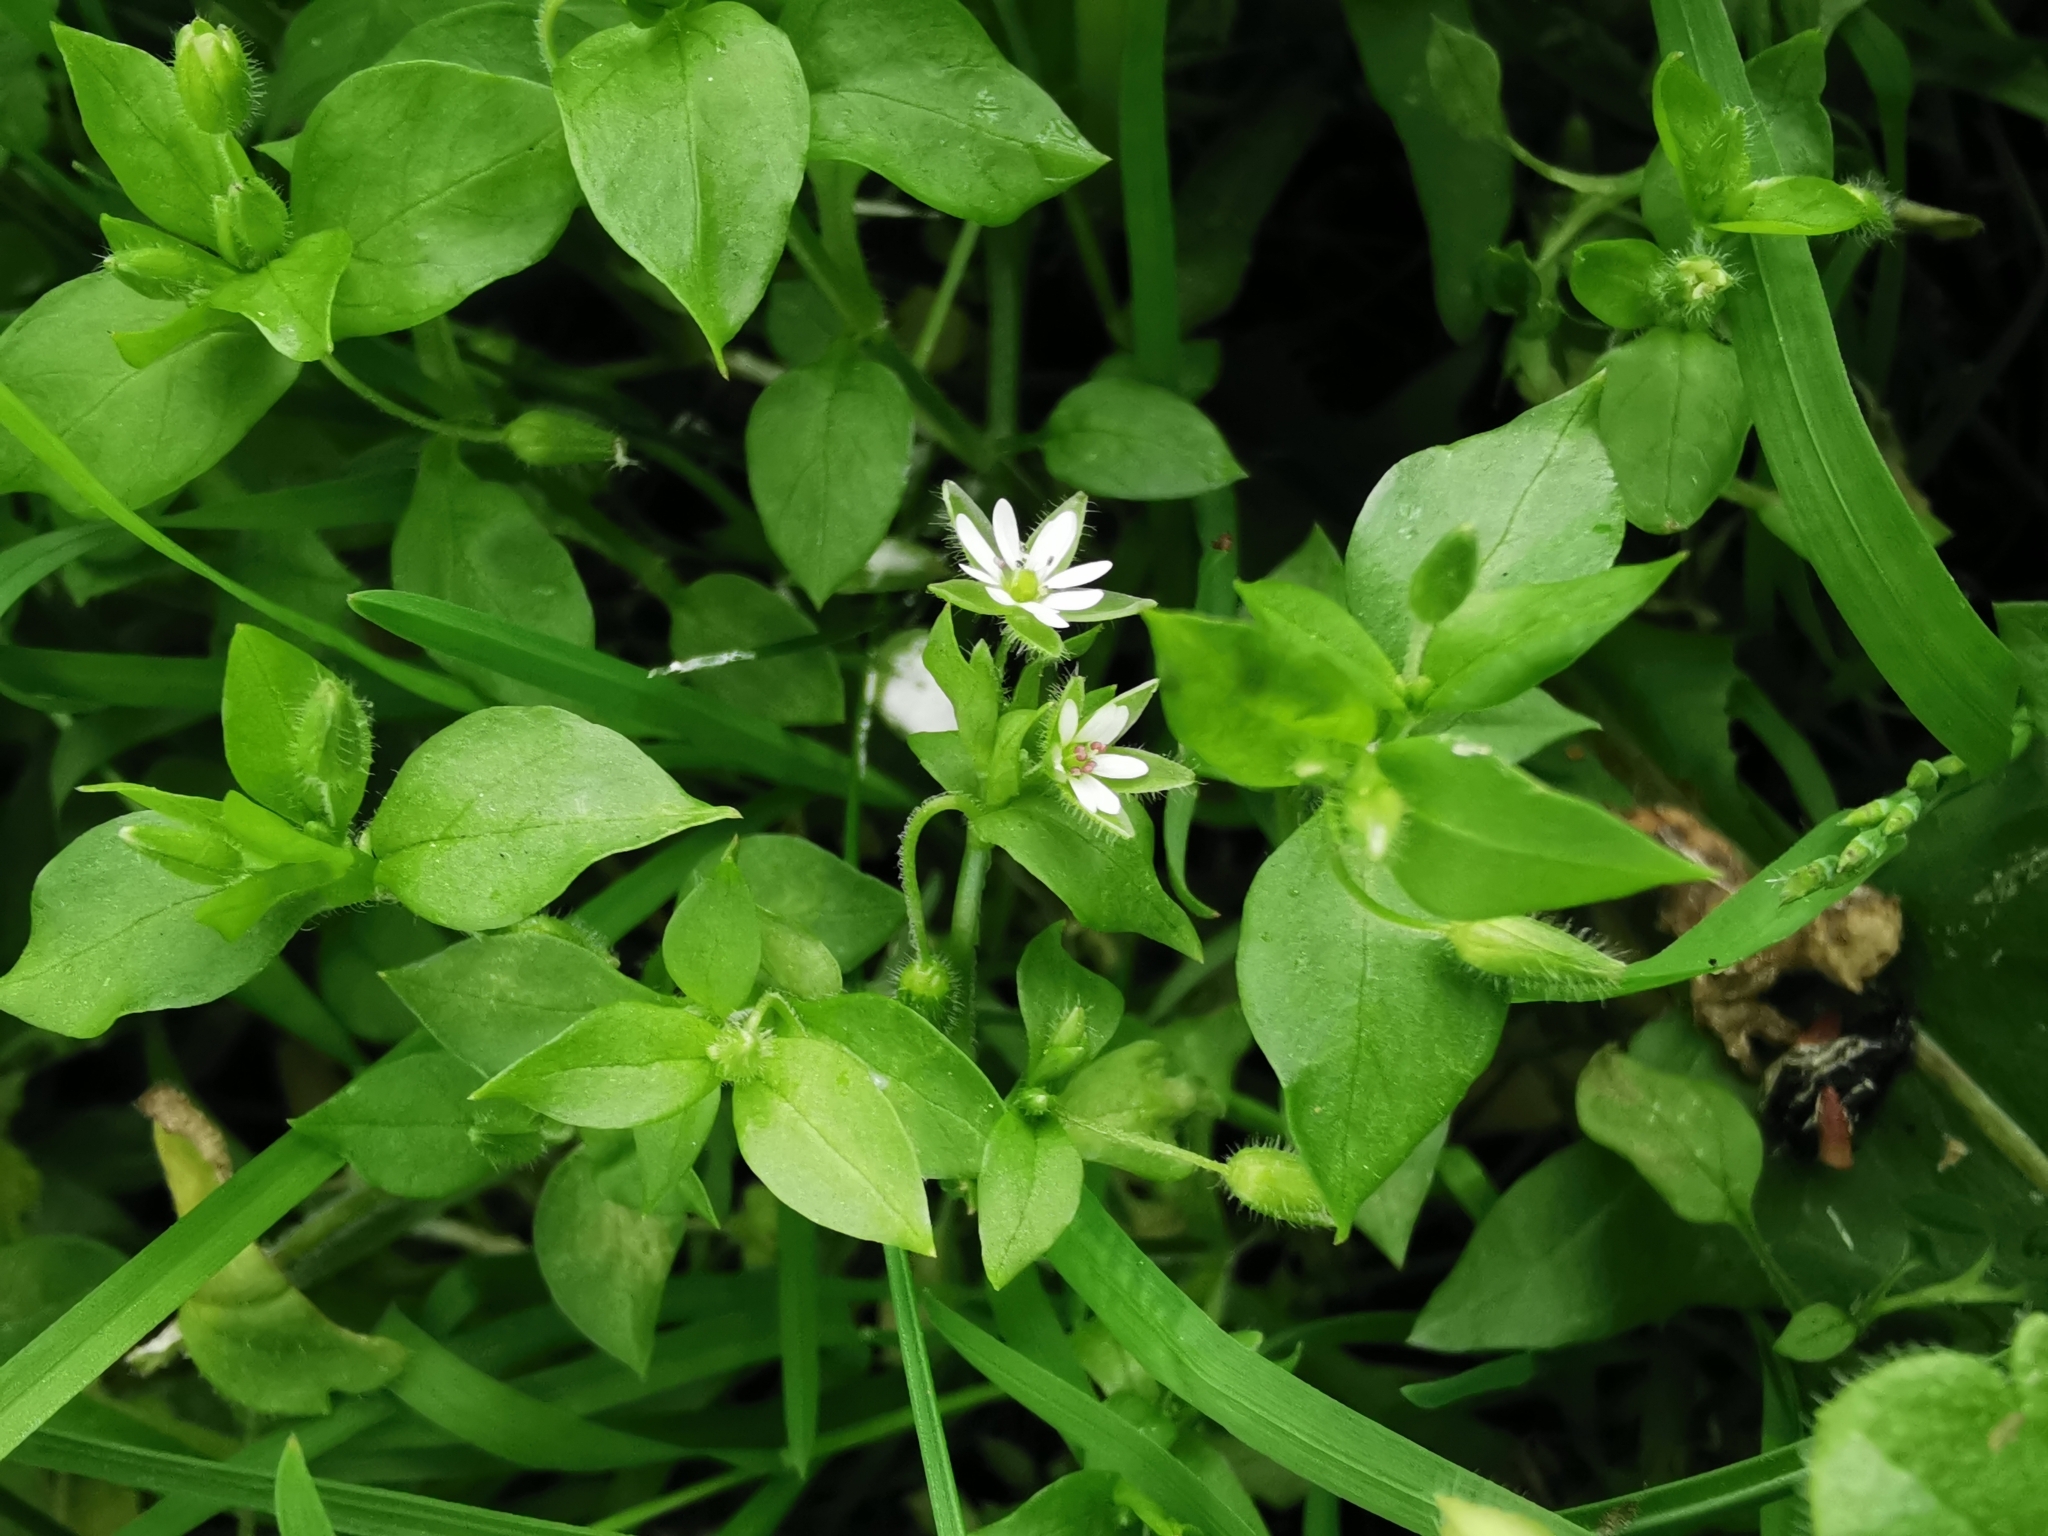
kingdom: Plantae
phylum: Tracheophyta
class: Magnoliopsida
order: Caryophyllales
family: Caryophyllaceae
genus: Stellaria
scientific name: Stellaria media
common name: Common chickweed
